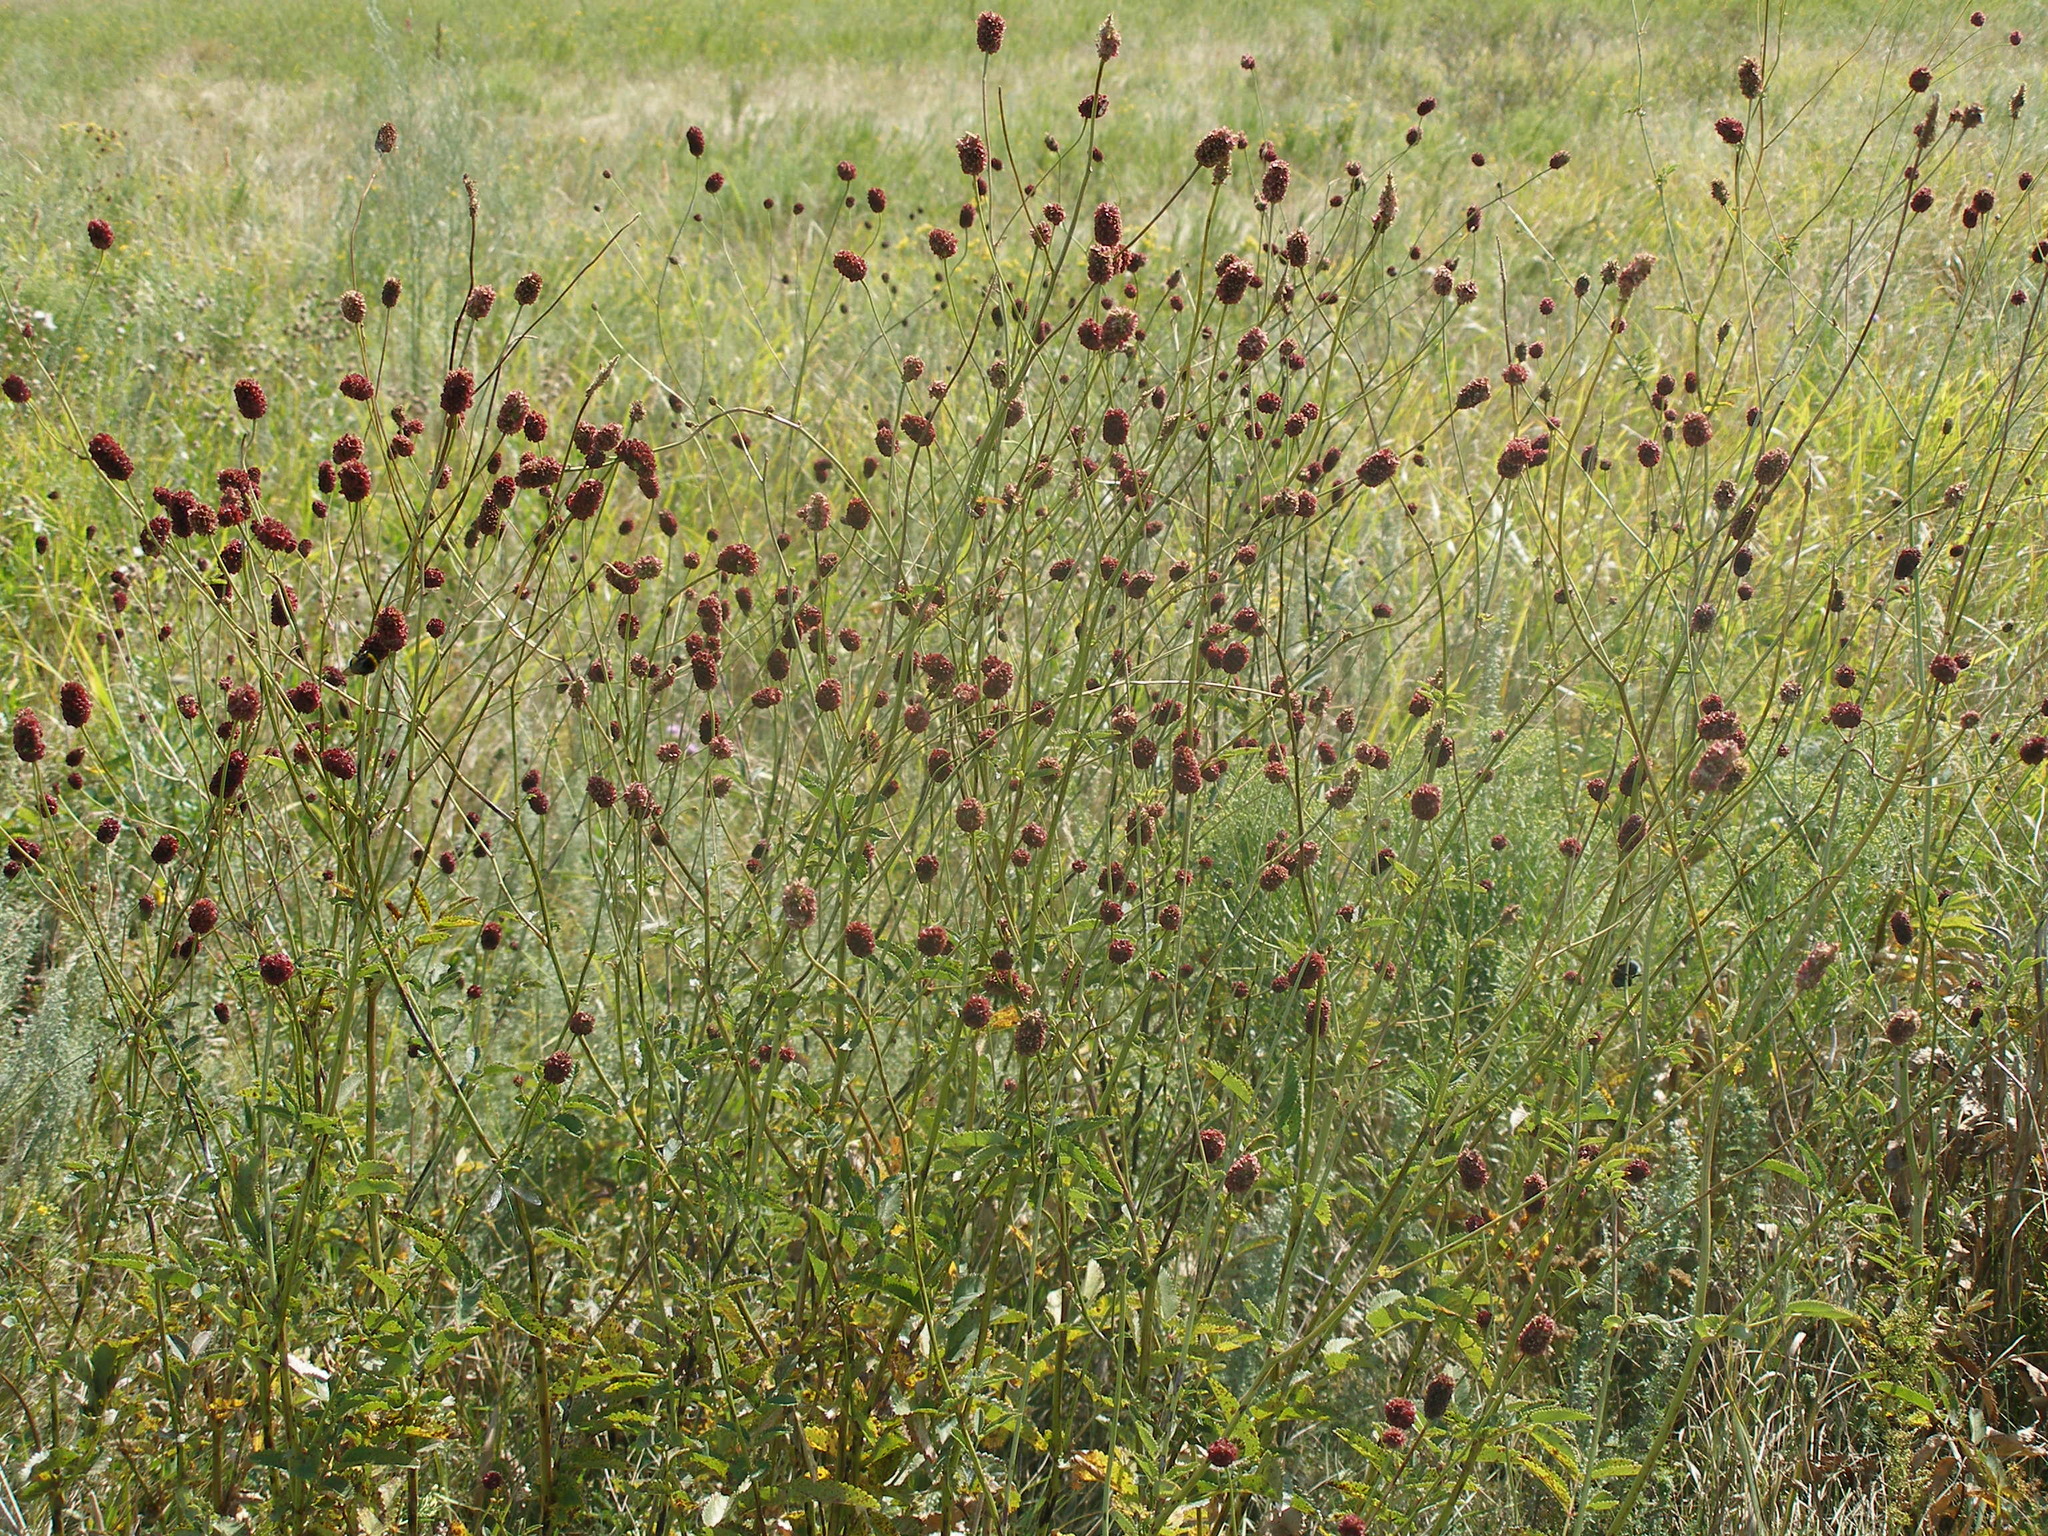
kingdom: Plantae
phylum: Tracheophyta
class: Magnoliopsida
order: Rosales
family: Rosaceae
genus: Sanguisorba
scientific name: Sanguisorba officinalis
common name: Great burnet
